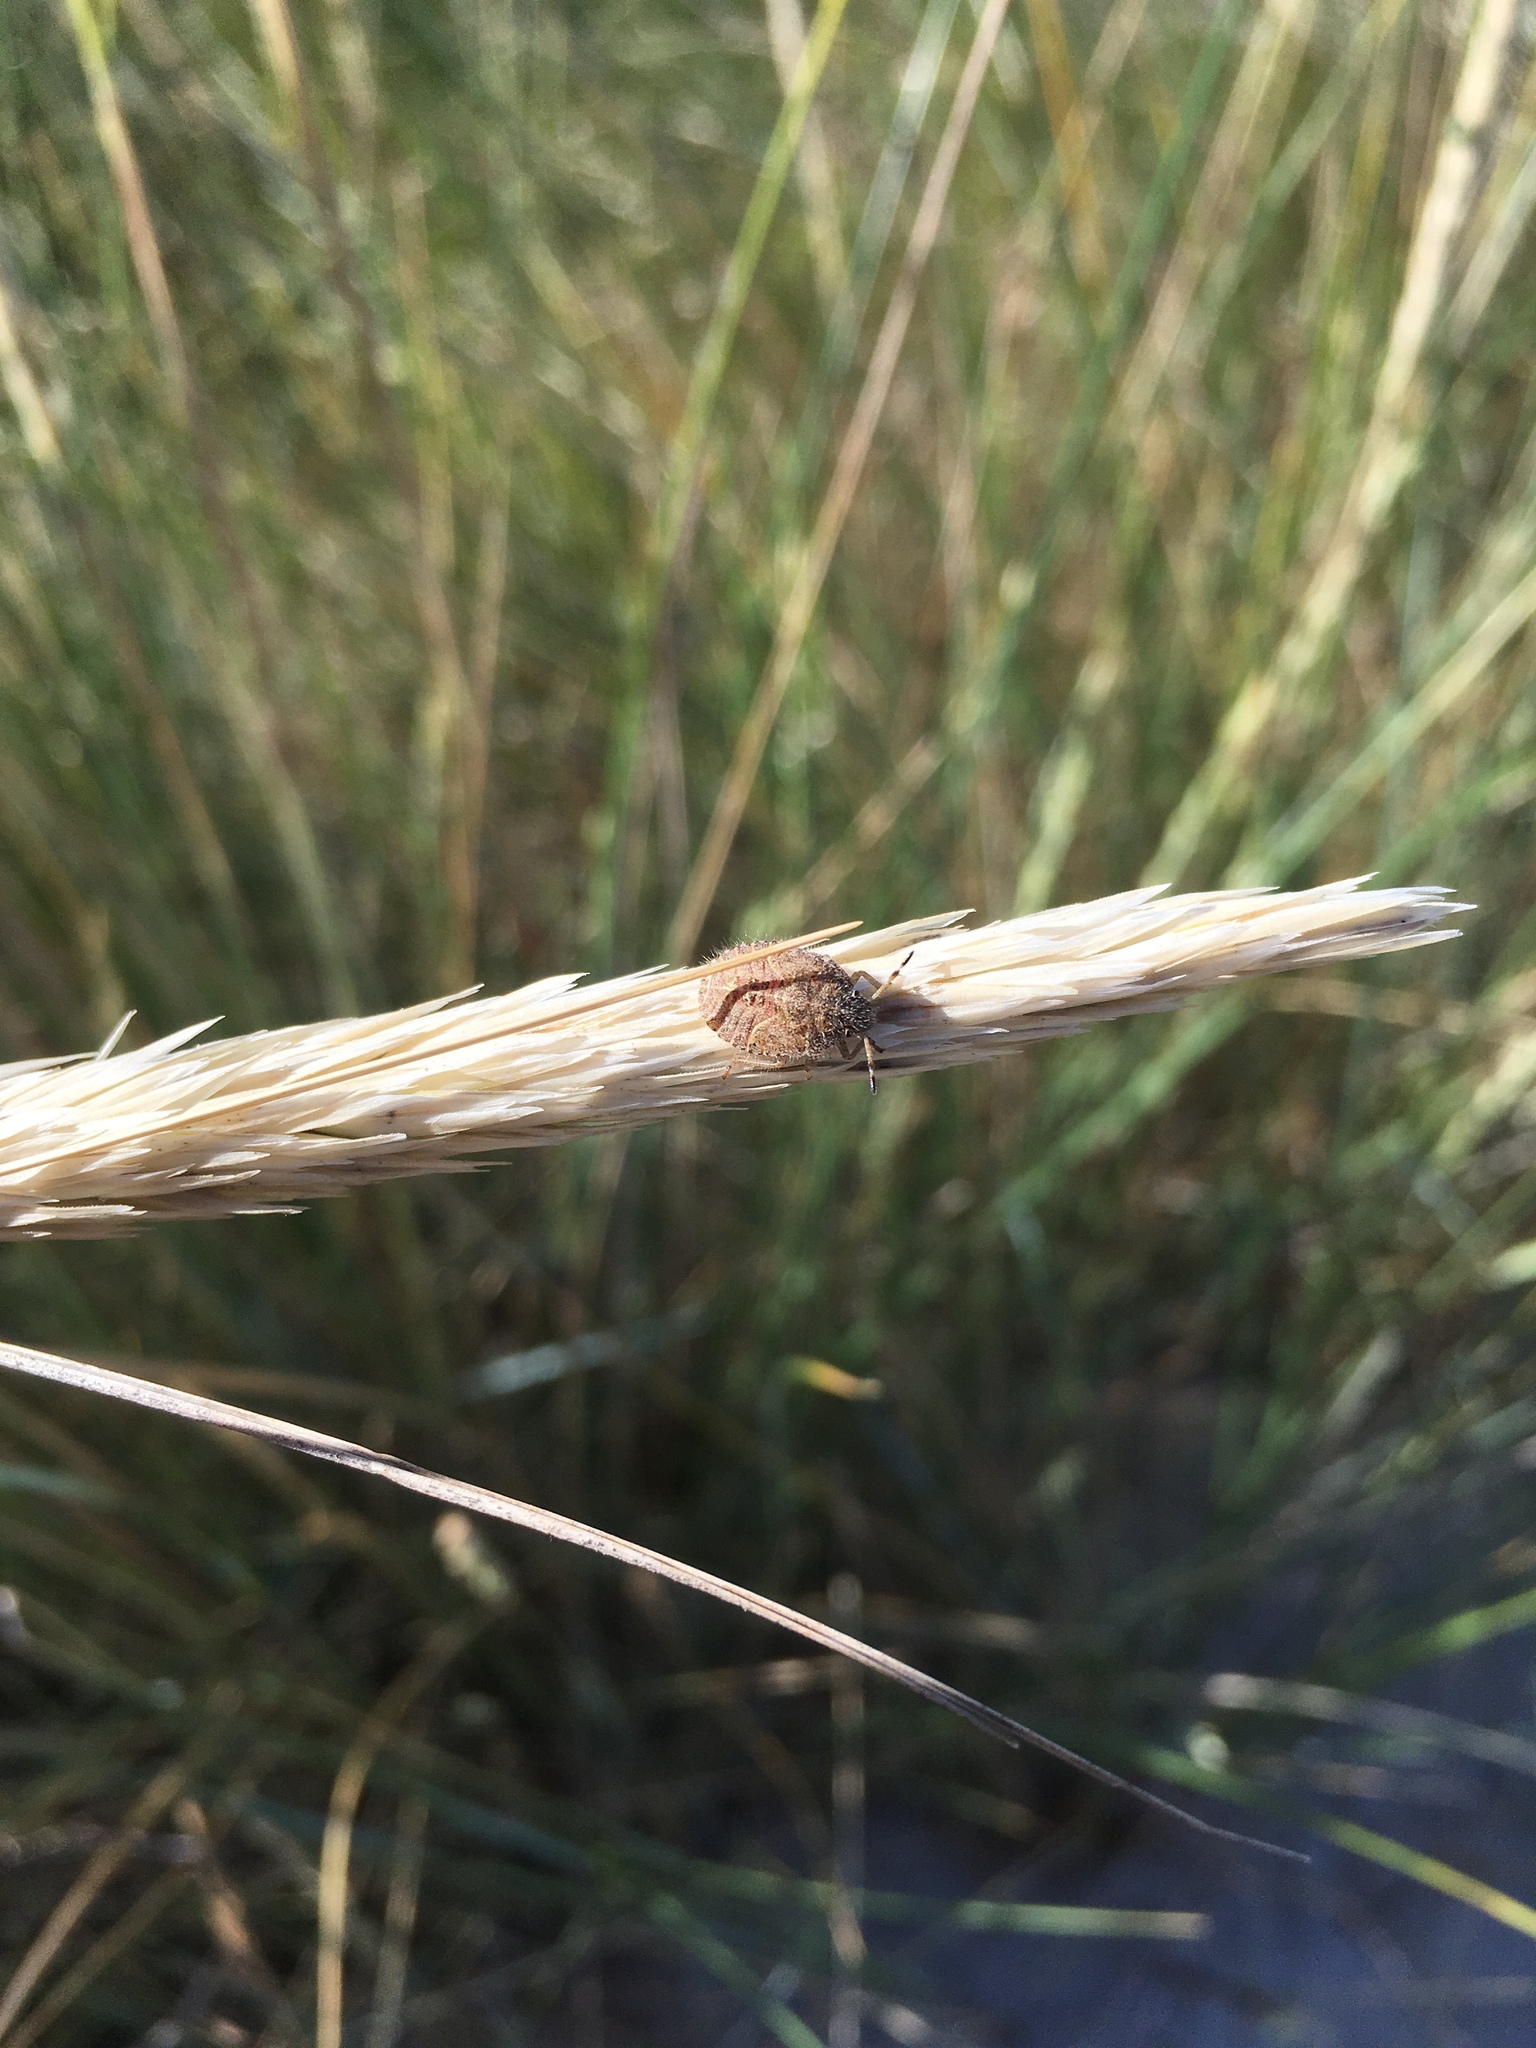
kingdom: Animalia
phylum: Arthropoda
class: Insecta
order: Hemiptera
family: Pentatomidae
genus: Dolycoris
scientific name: Dolycoris baccarum
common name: Sloe bug
